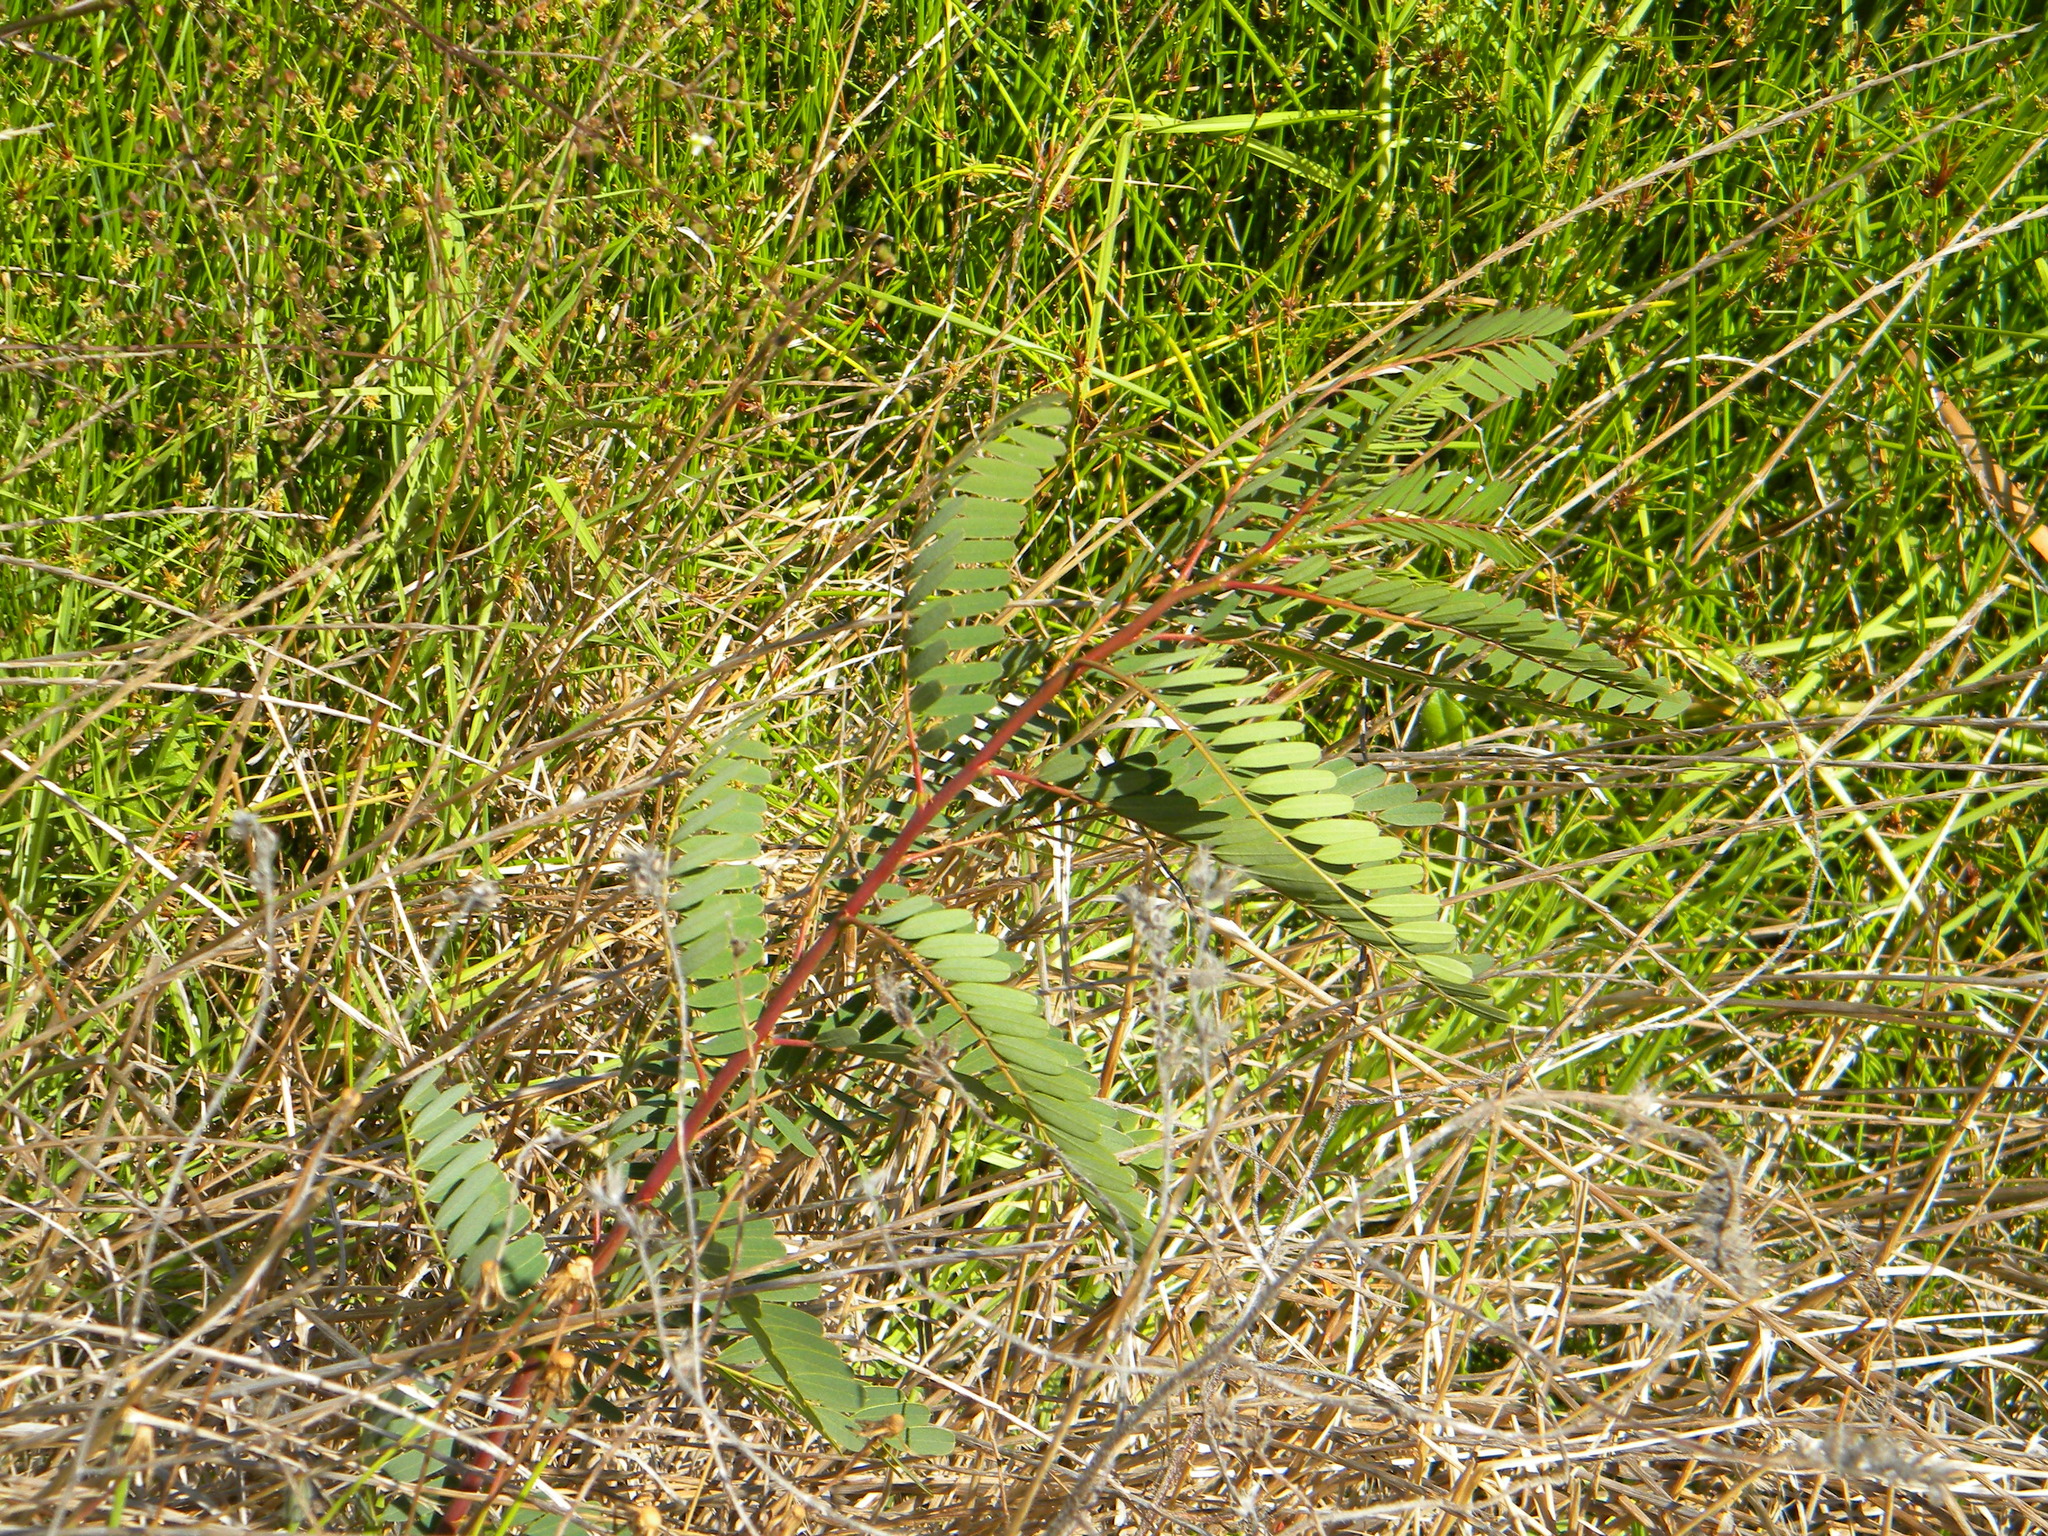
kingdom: Plantae
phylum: Tracheophyta
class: Magnoliopsida
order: Fabales
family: Fabaceae
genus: Sesbania
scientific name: Sesbania punicea
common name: Rattlebox
